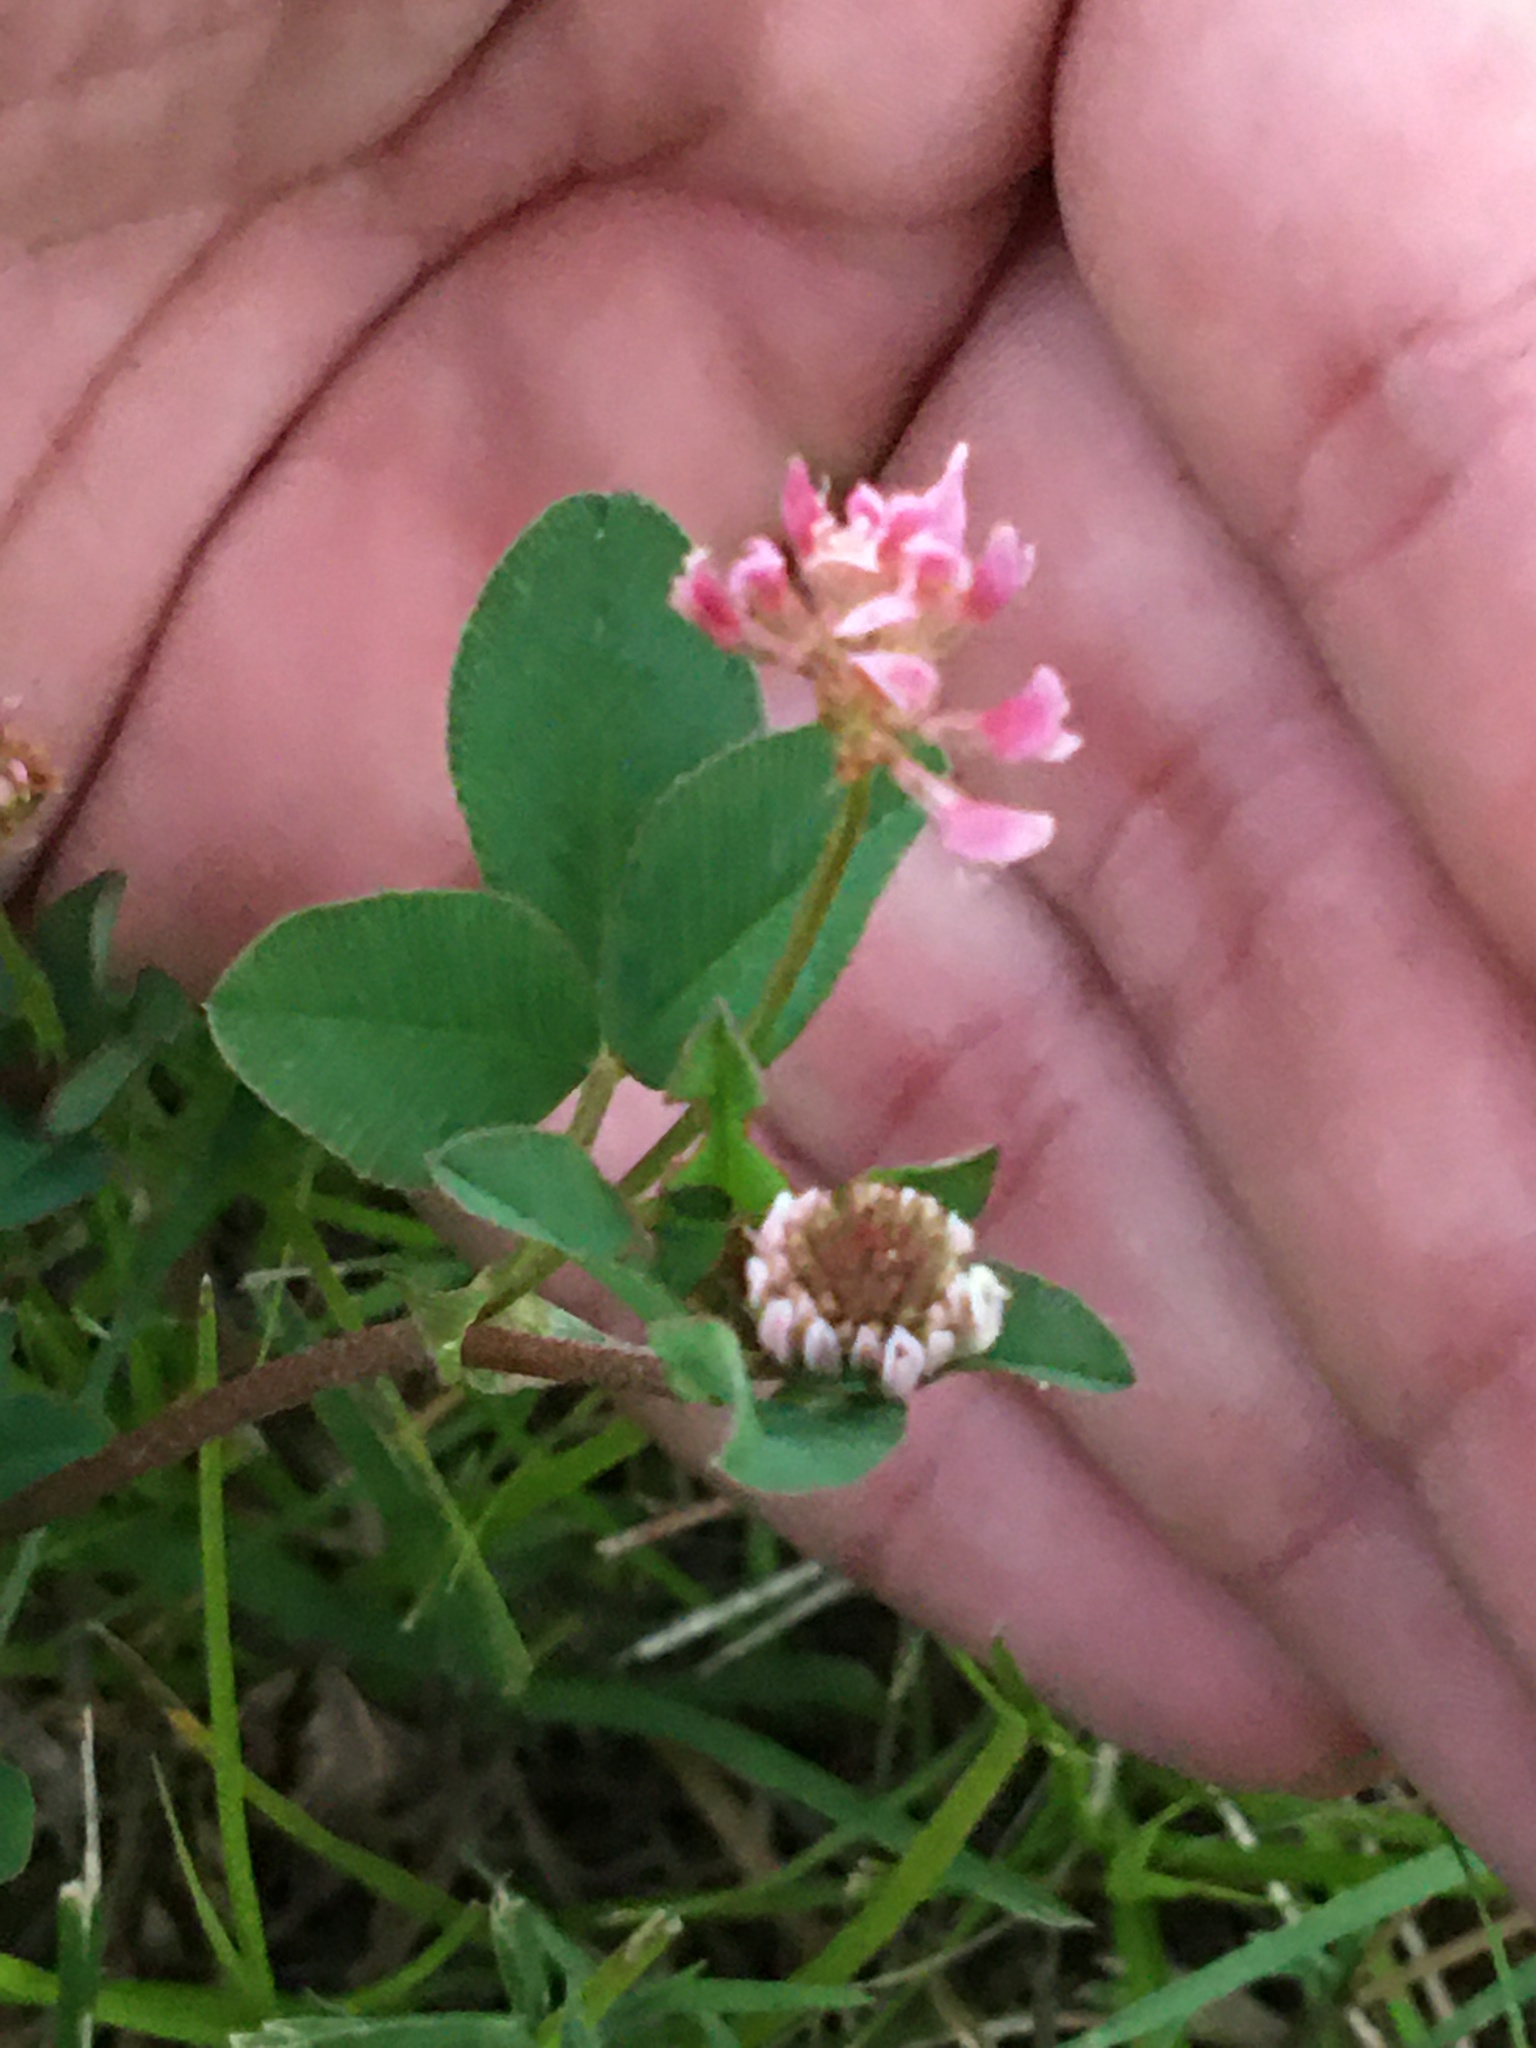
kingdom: Plantae
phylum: Tracheophyta
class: Magnoliopsida
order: Fabales
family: Fabaceae
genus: Trifolium
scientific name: Trifolium hybridum
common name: Alsike clover
